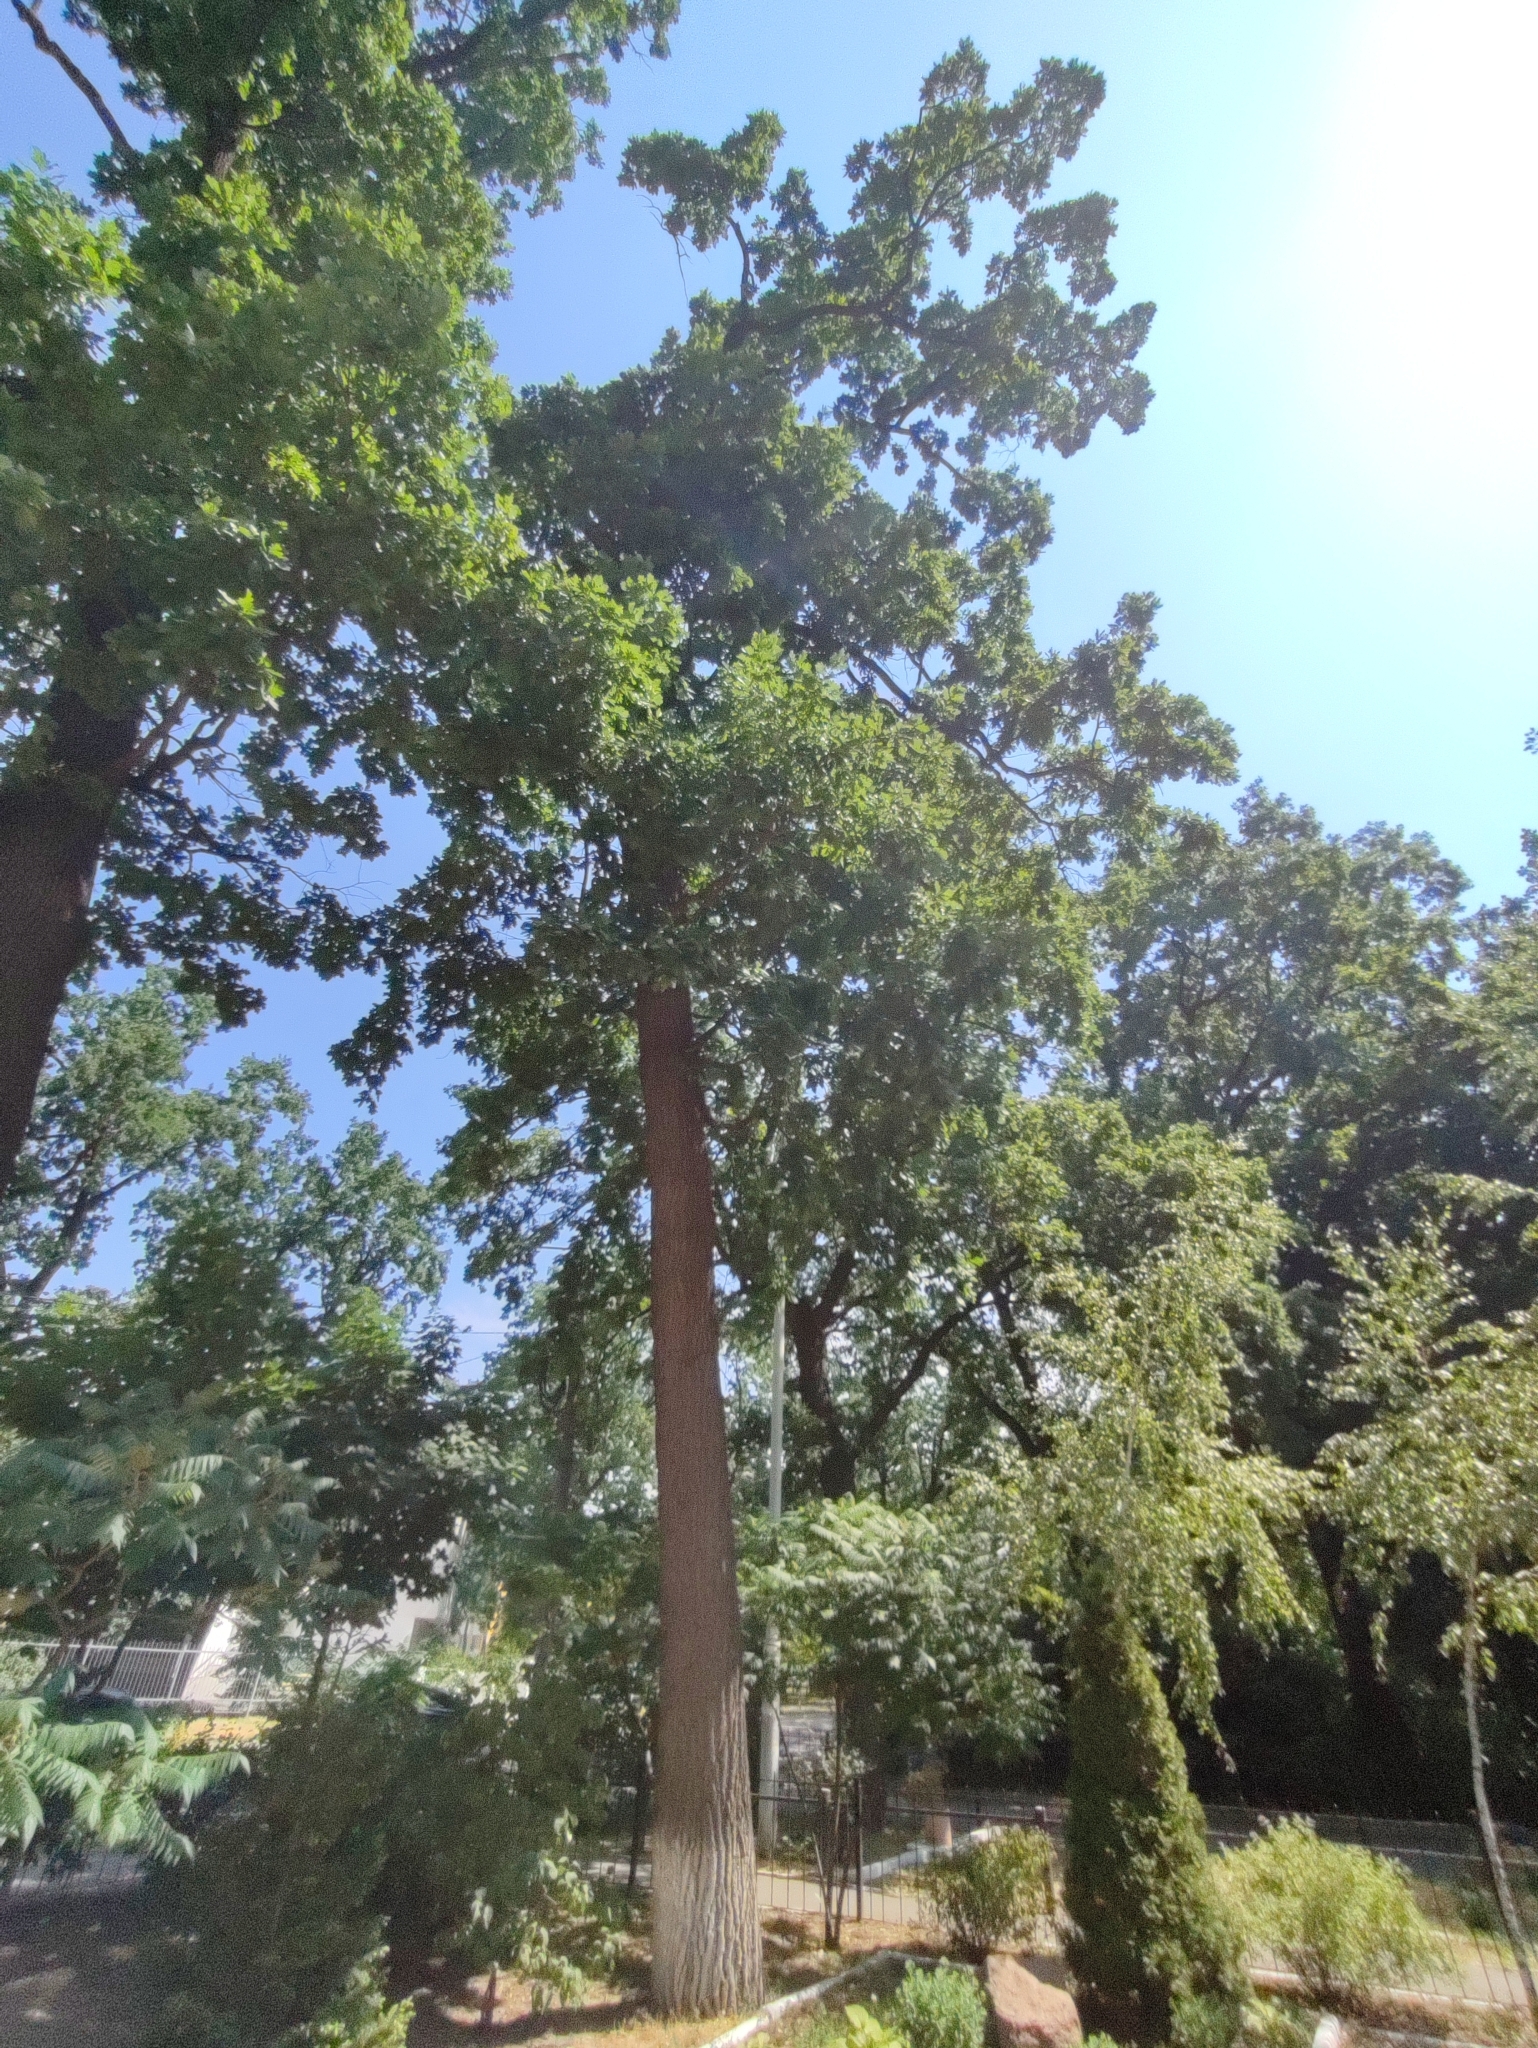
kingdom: Plantae
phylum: Tracheophyta
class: Magnoliopsida
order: Fagales
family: Fagaceae
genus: Quercus
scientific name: Quercus robur
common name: Pedunculate oak
